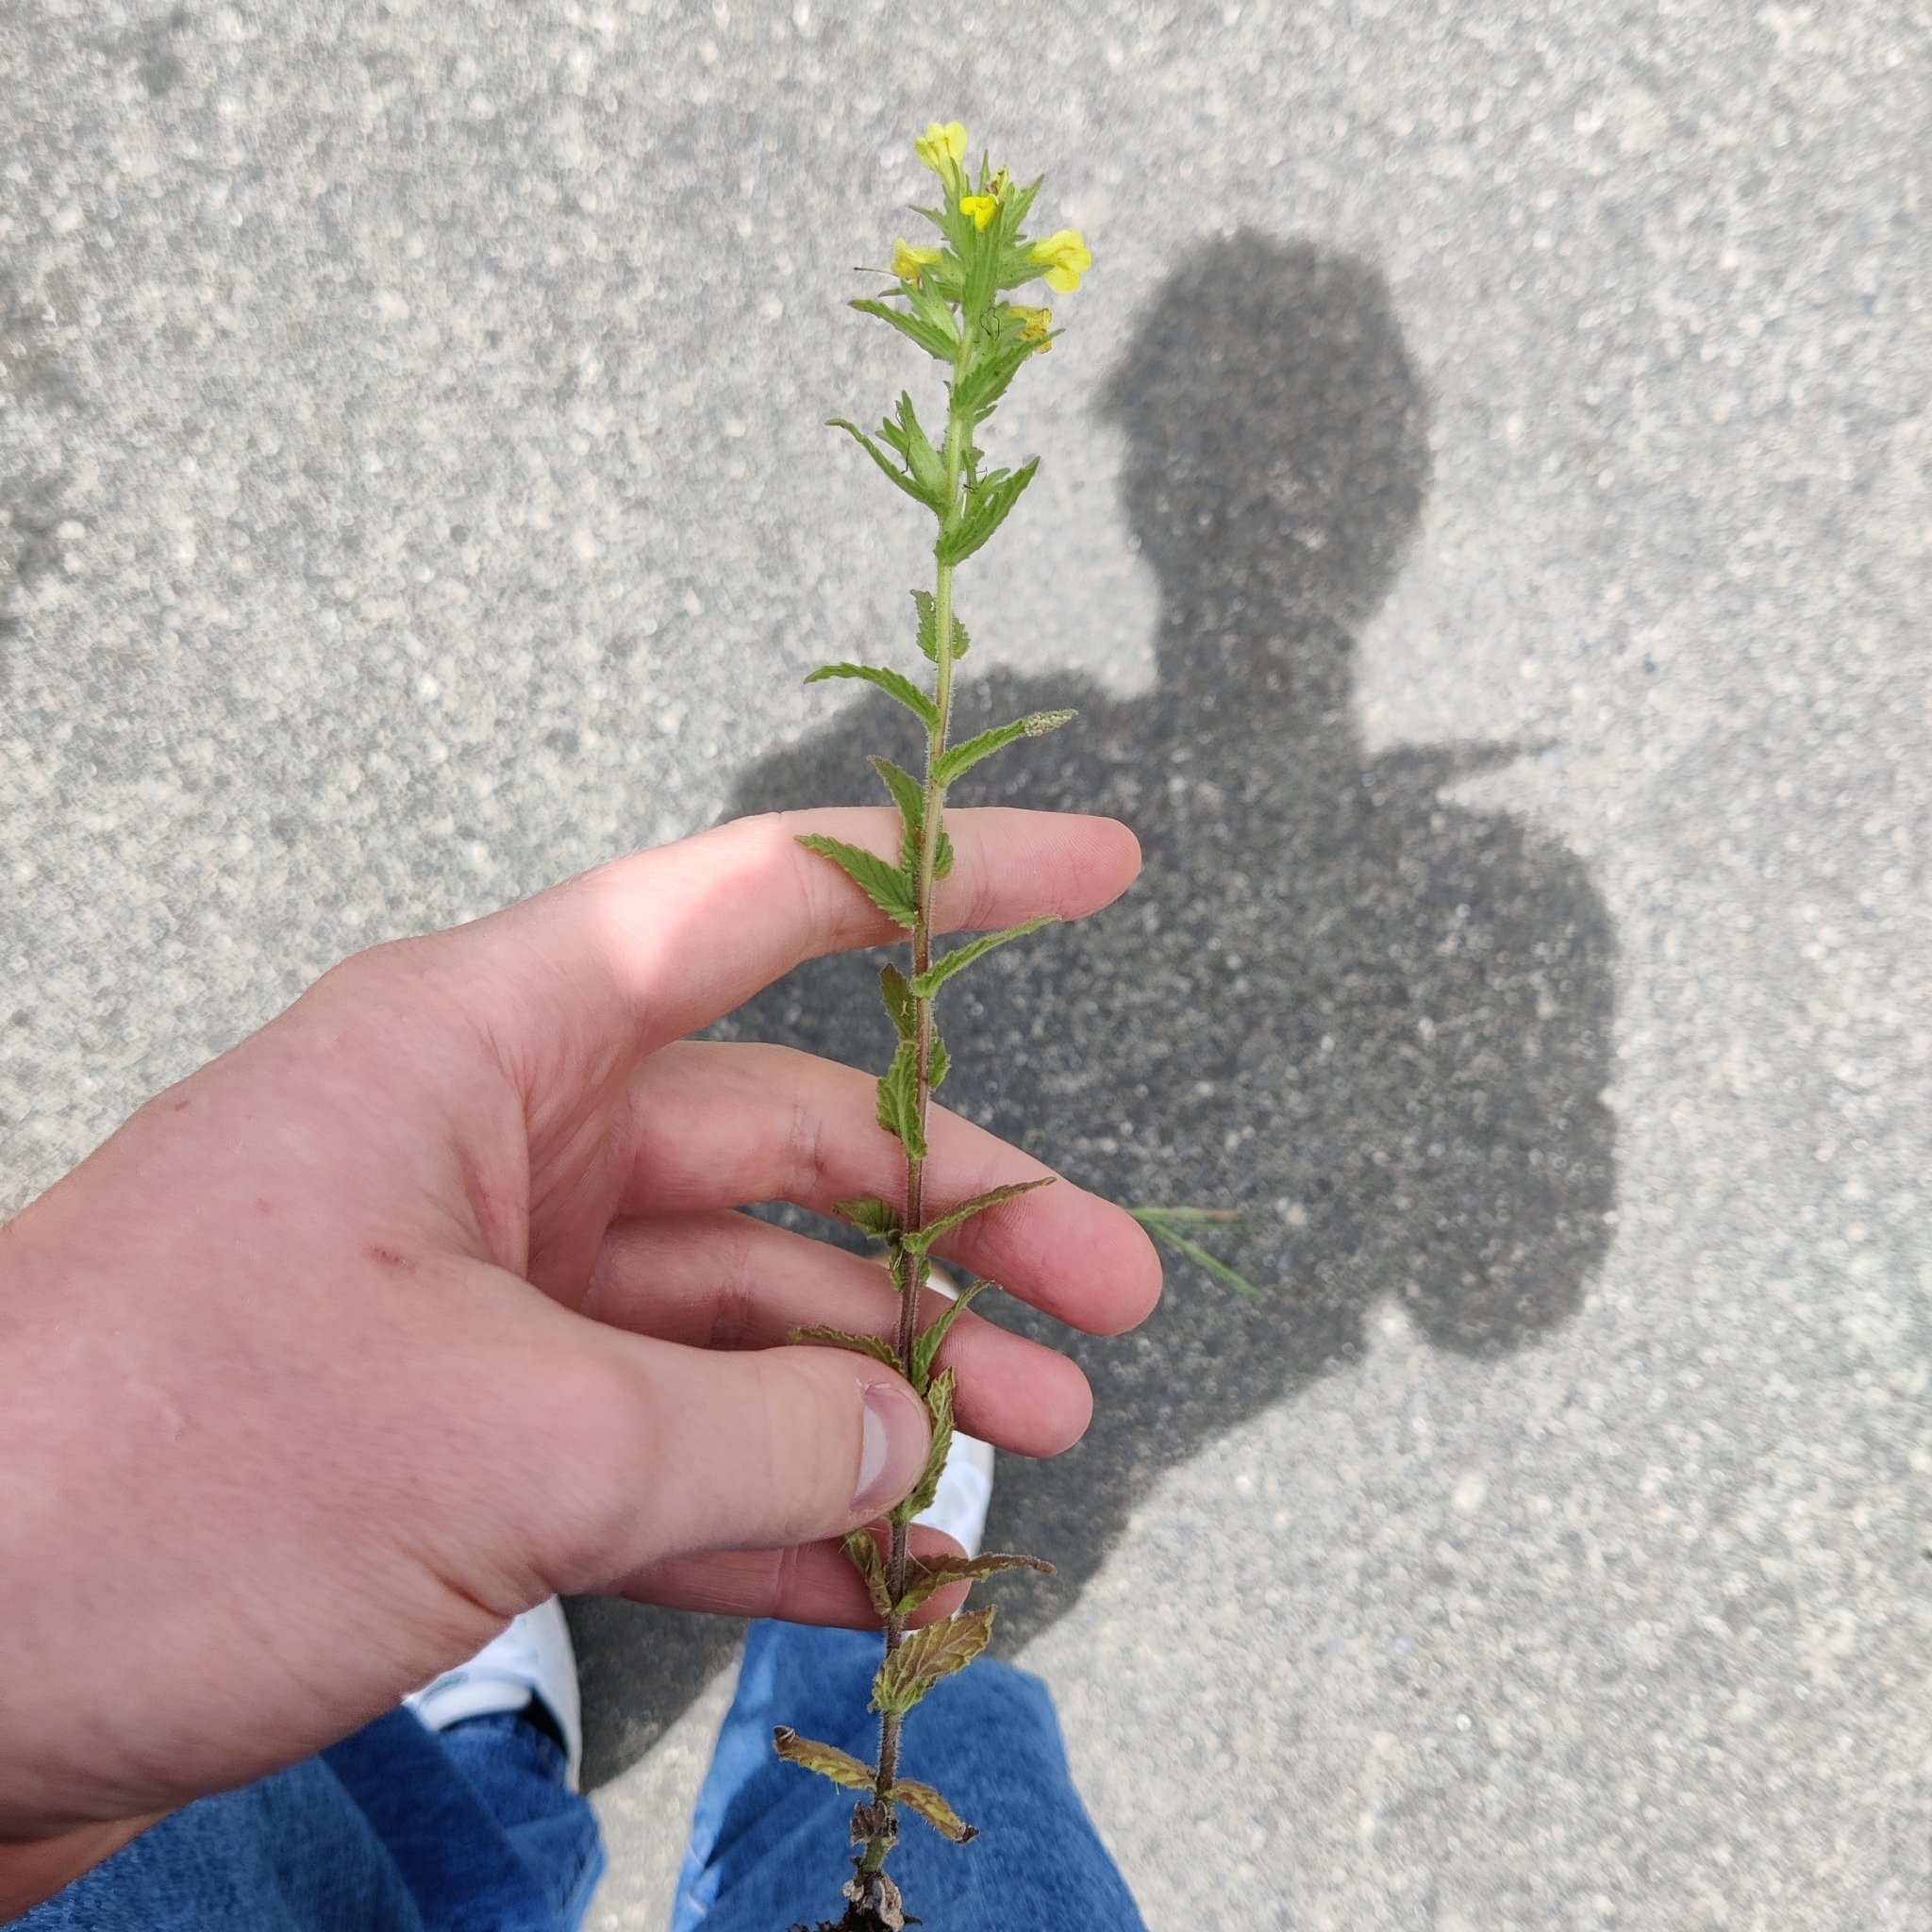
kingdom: Plantae
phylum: Tracheophyta
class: Magnoliopsida
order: Lamiales
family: Orobanchaceae
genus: Bellardia
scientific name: Bellardia viscosa
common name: Sticky parentucellia
